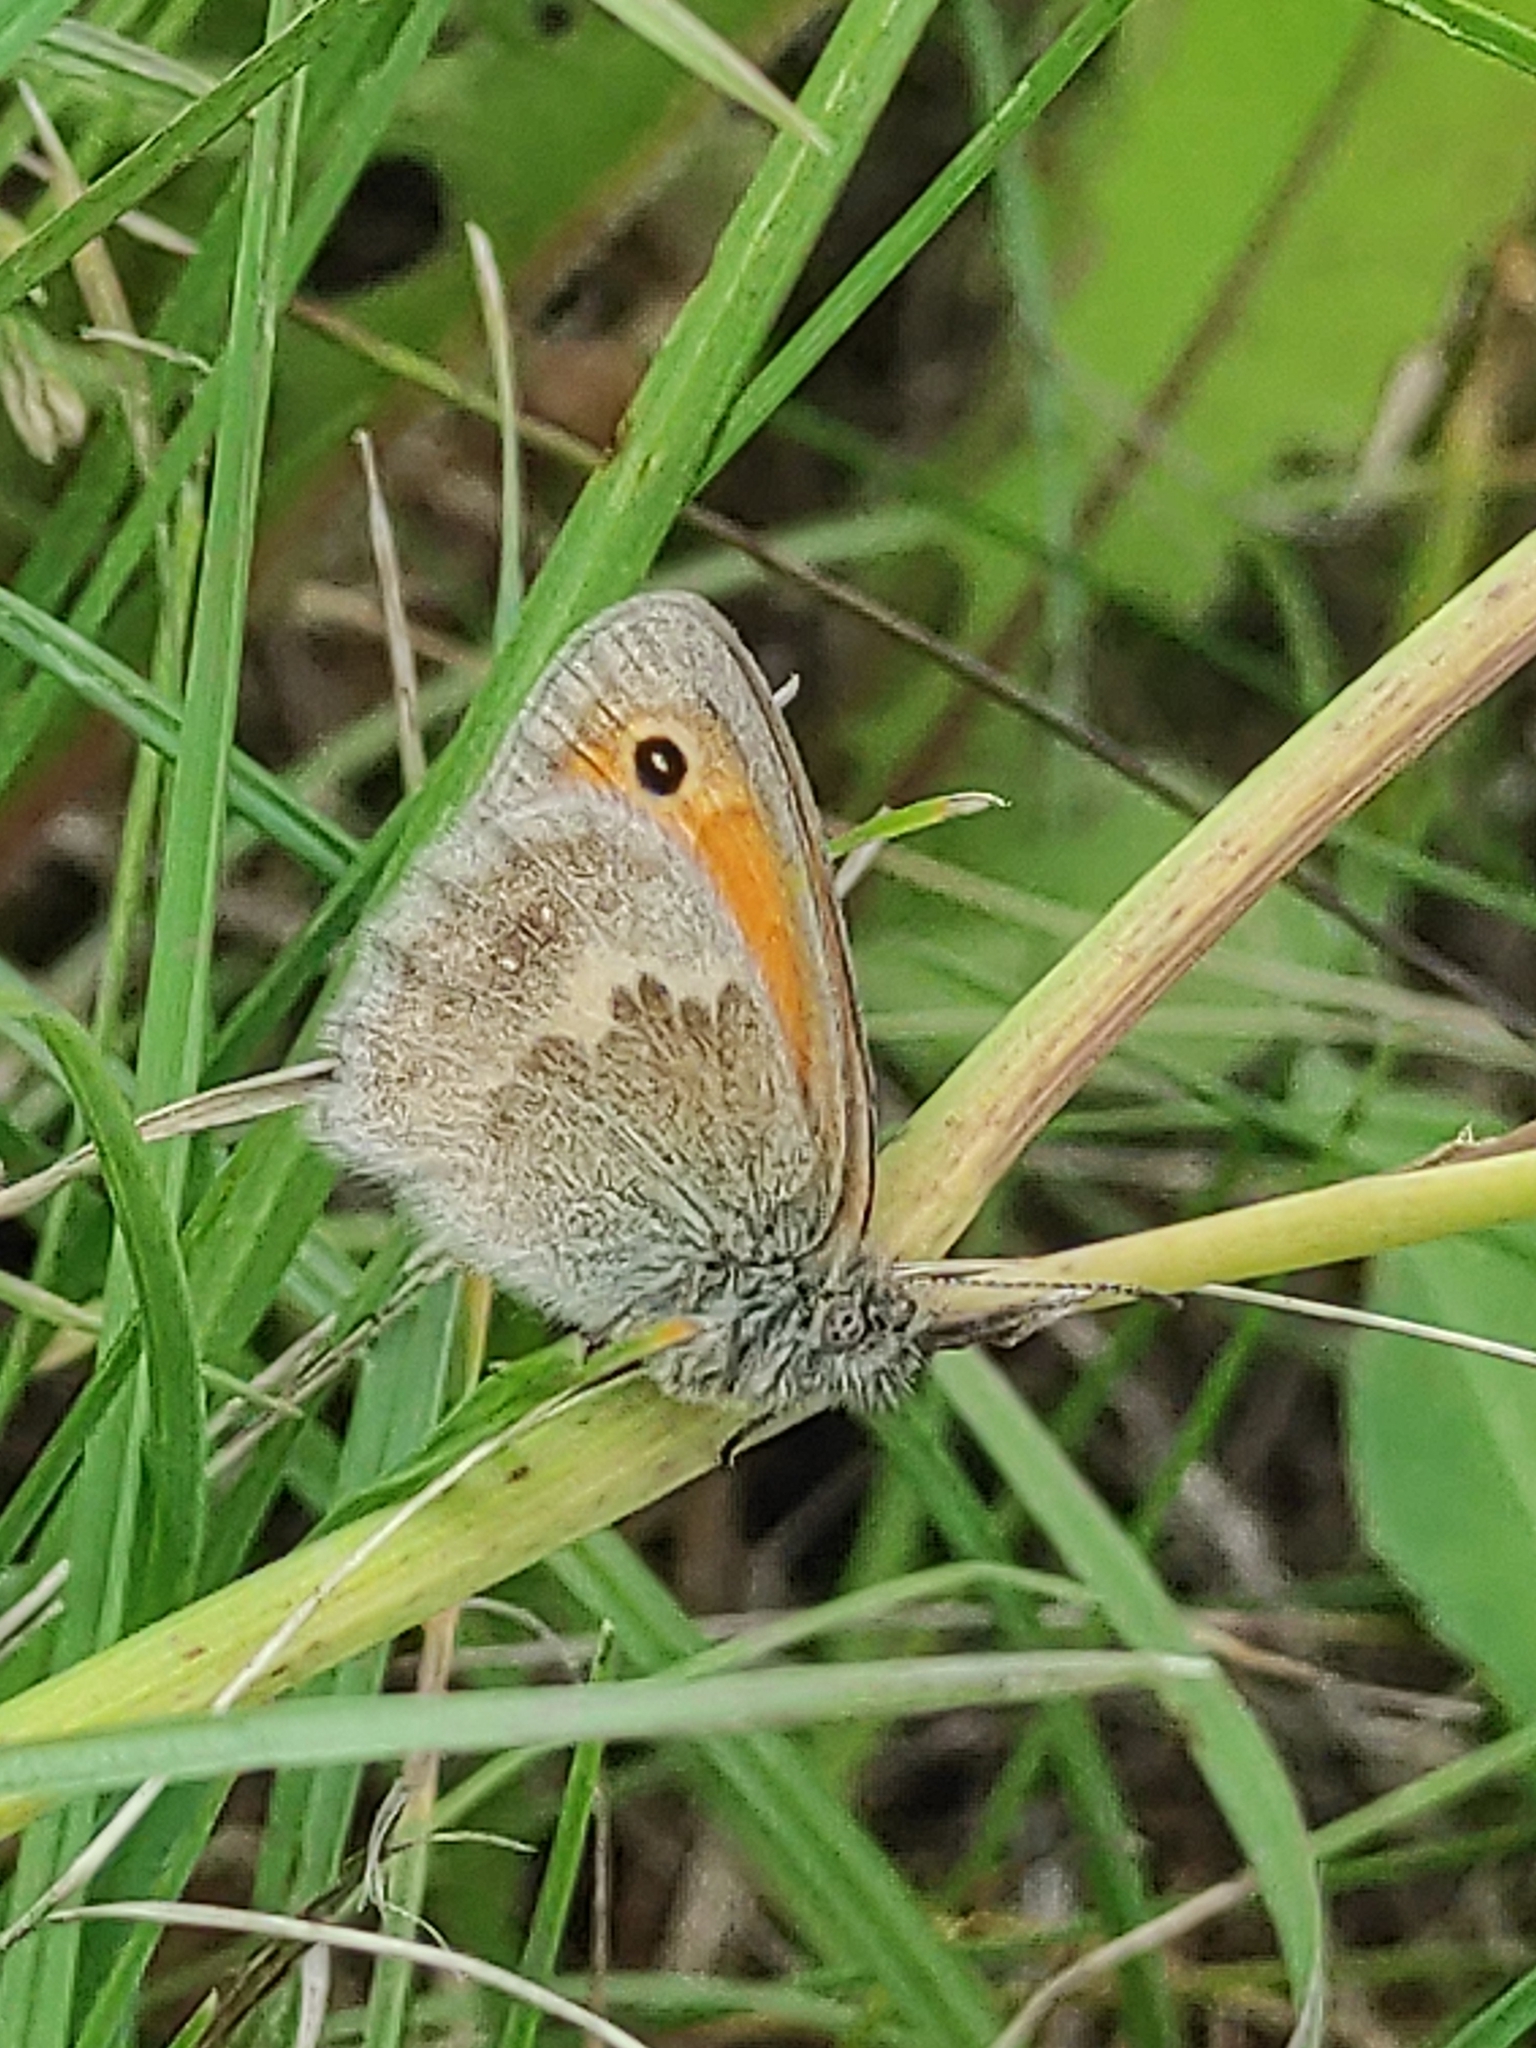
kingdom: Animalia
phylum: Arthropoda
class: Insecta
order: Lepidoptera
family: Nymphalidae
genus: Coenonympha
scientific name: Coenonympha pamphilus
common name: Small heath
